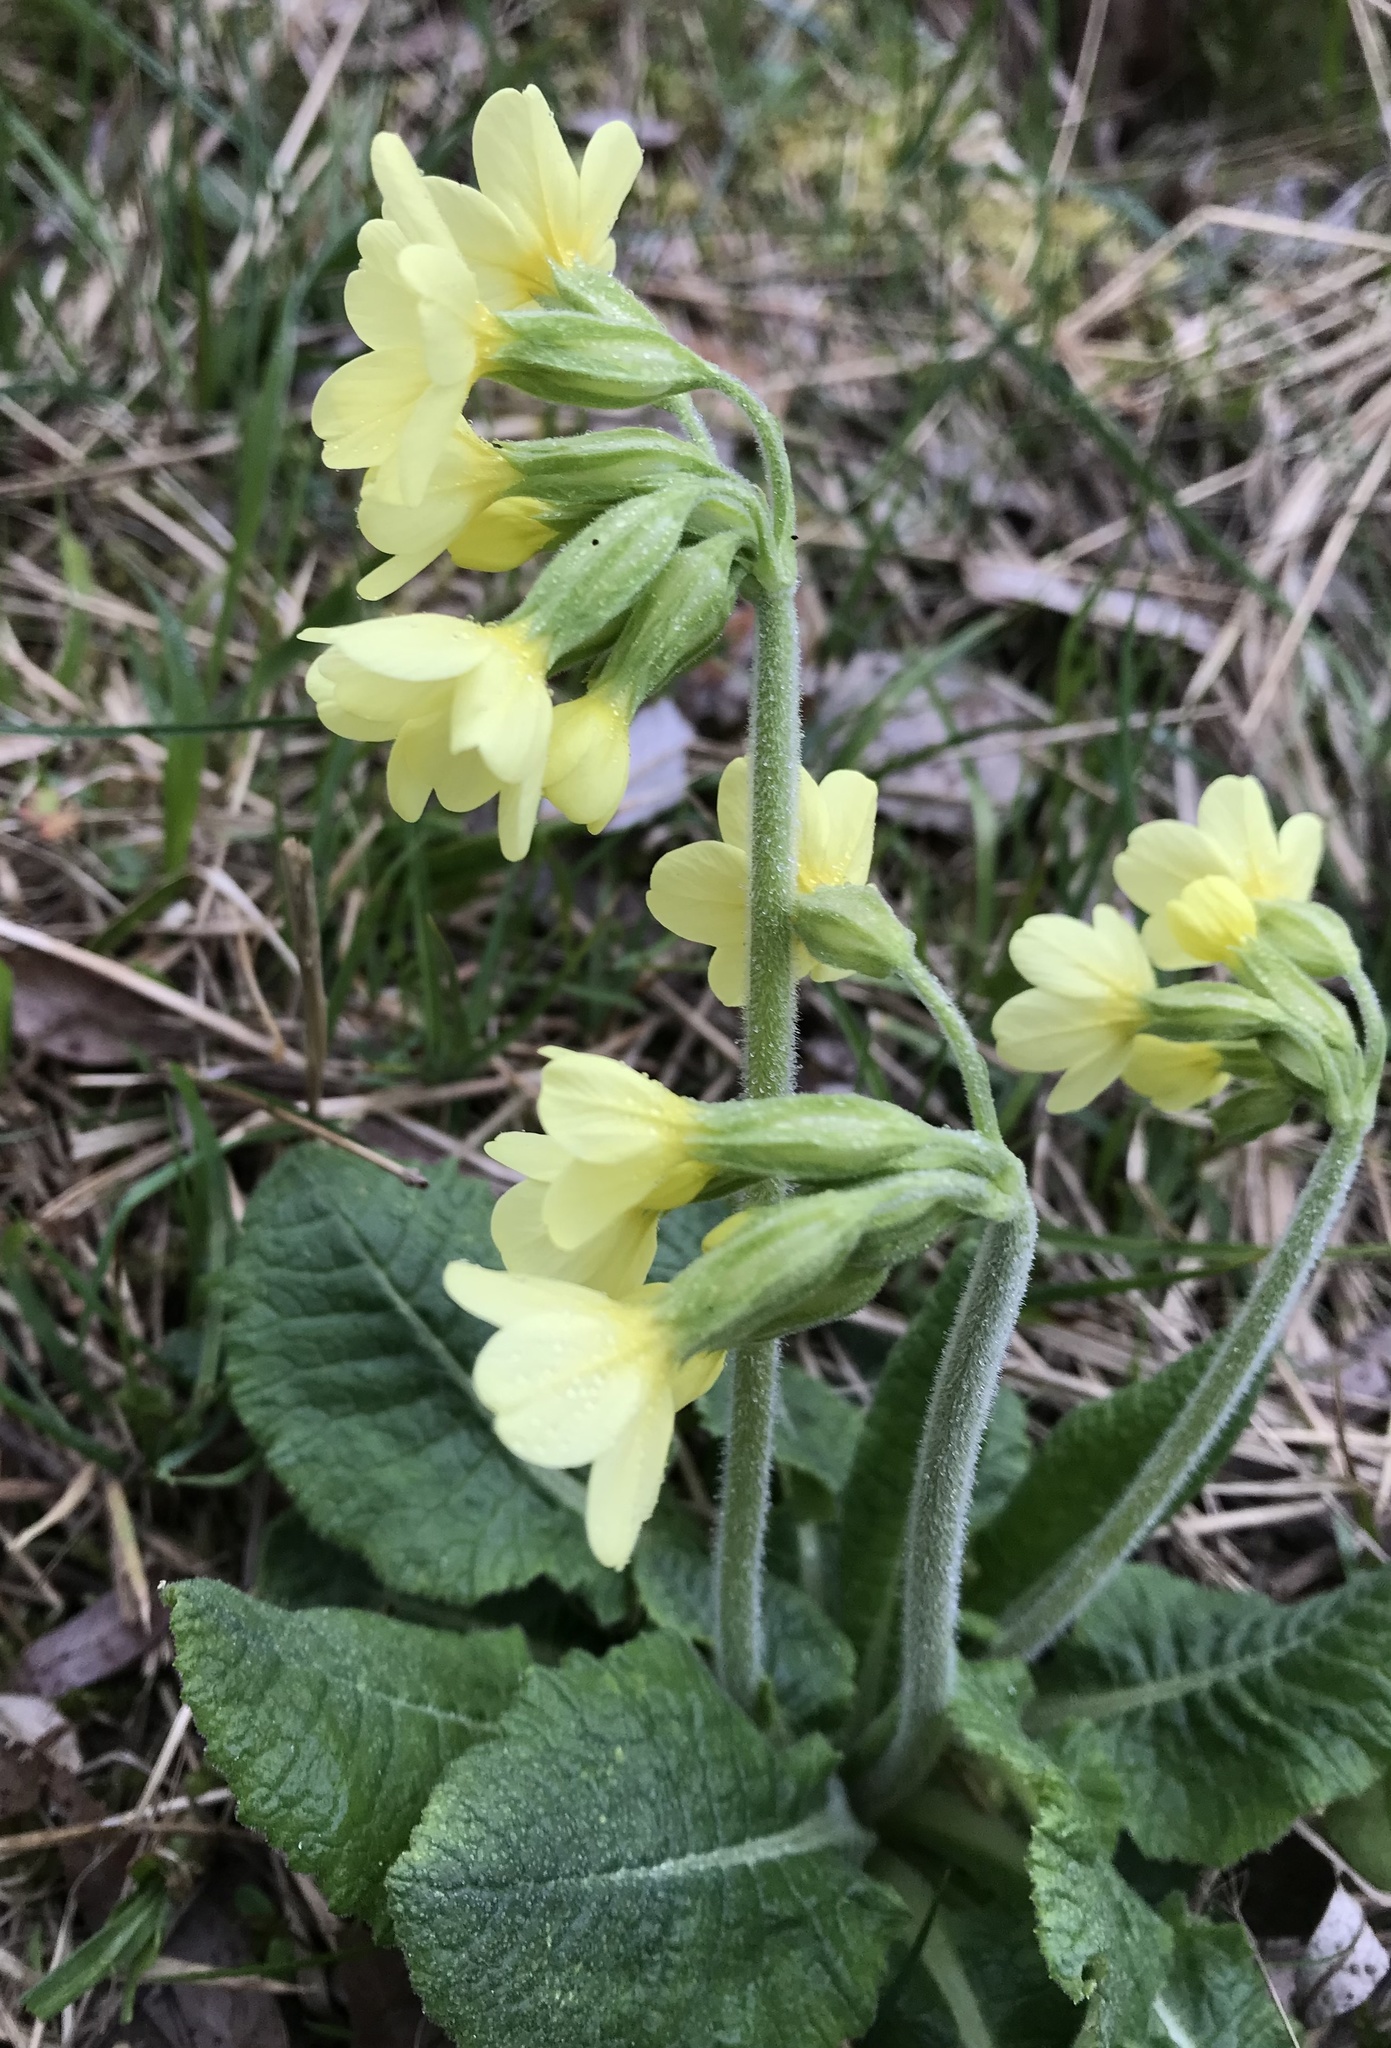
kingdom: Plantae
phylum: Tracheophyta
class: Magnoliopsida
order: Ericales
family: Primulaceae
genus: Primula
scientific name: Primula elatior
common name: Oxlip
